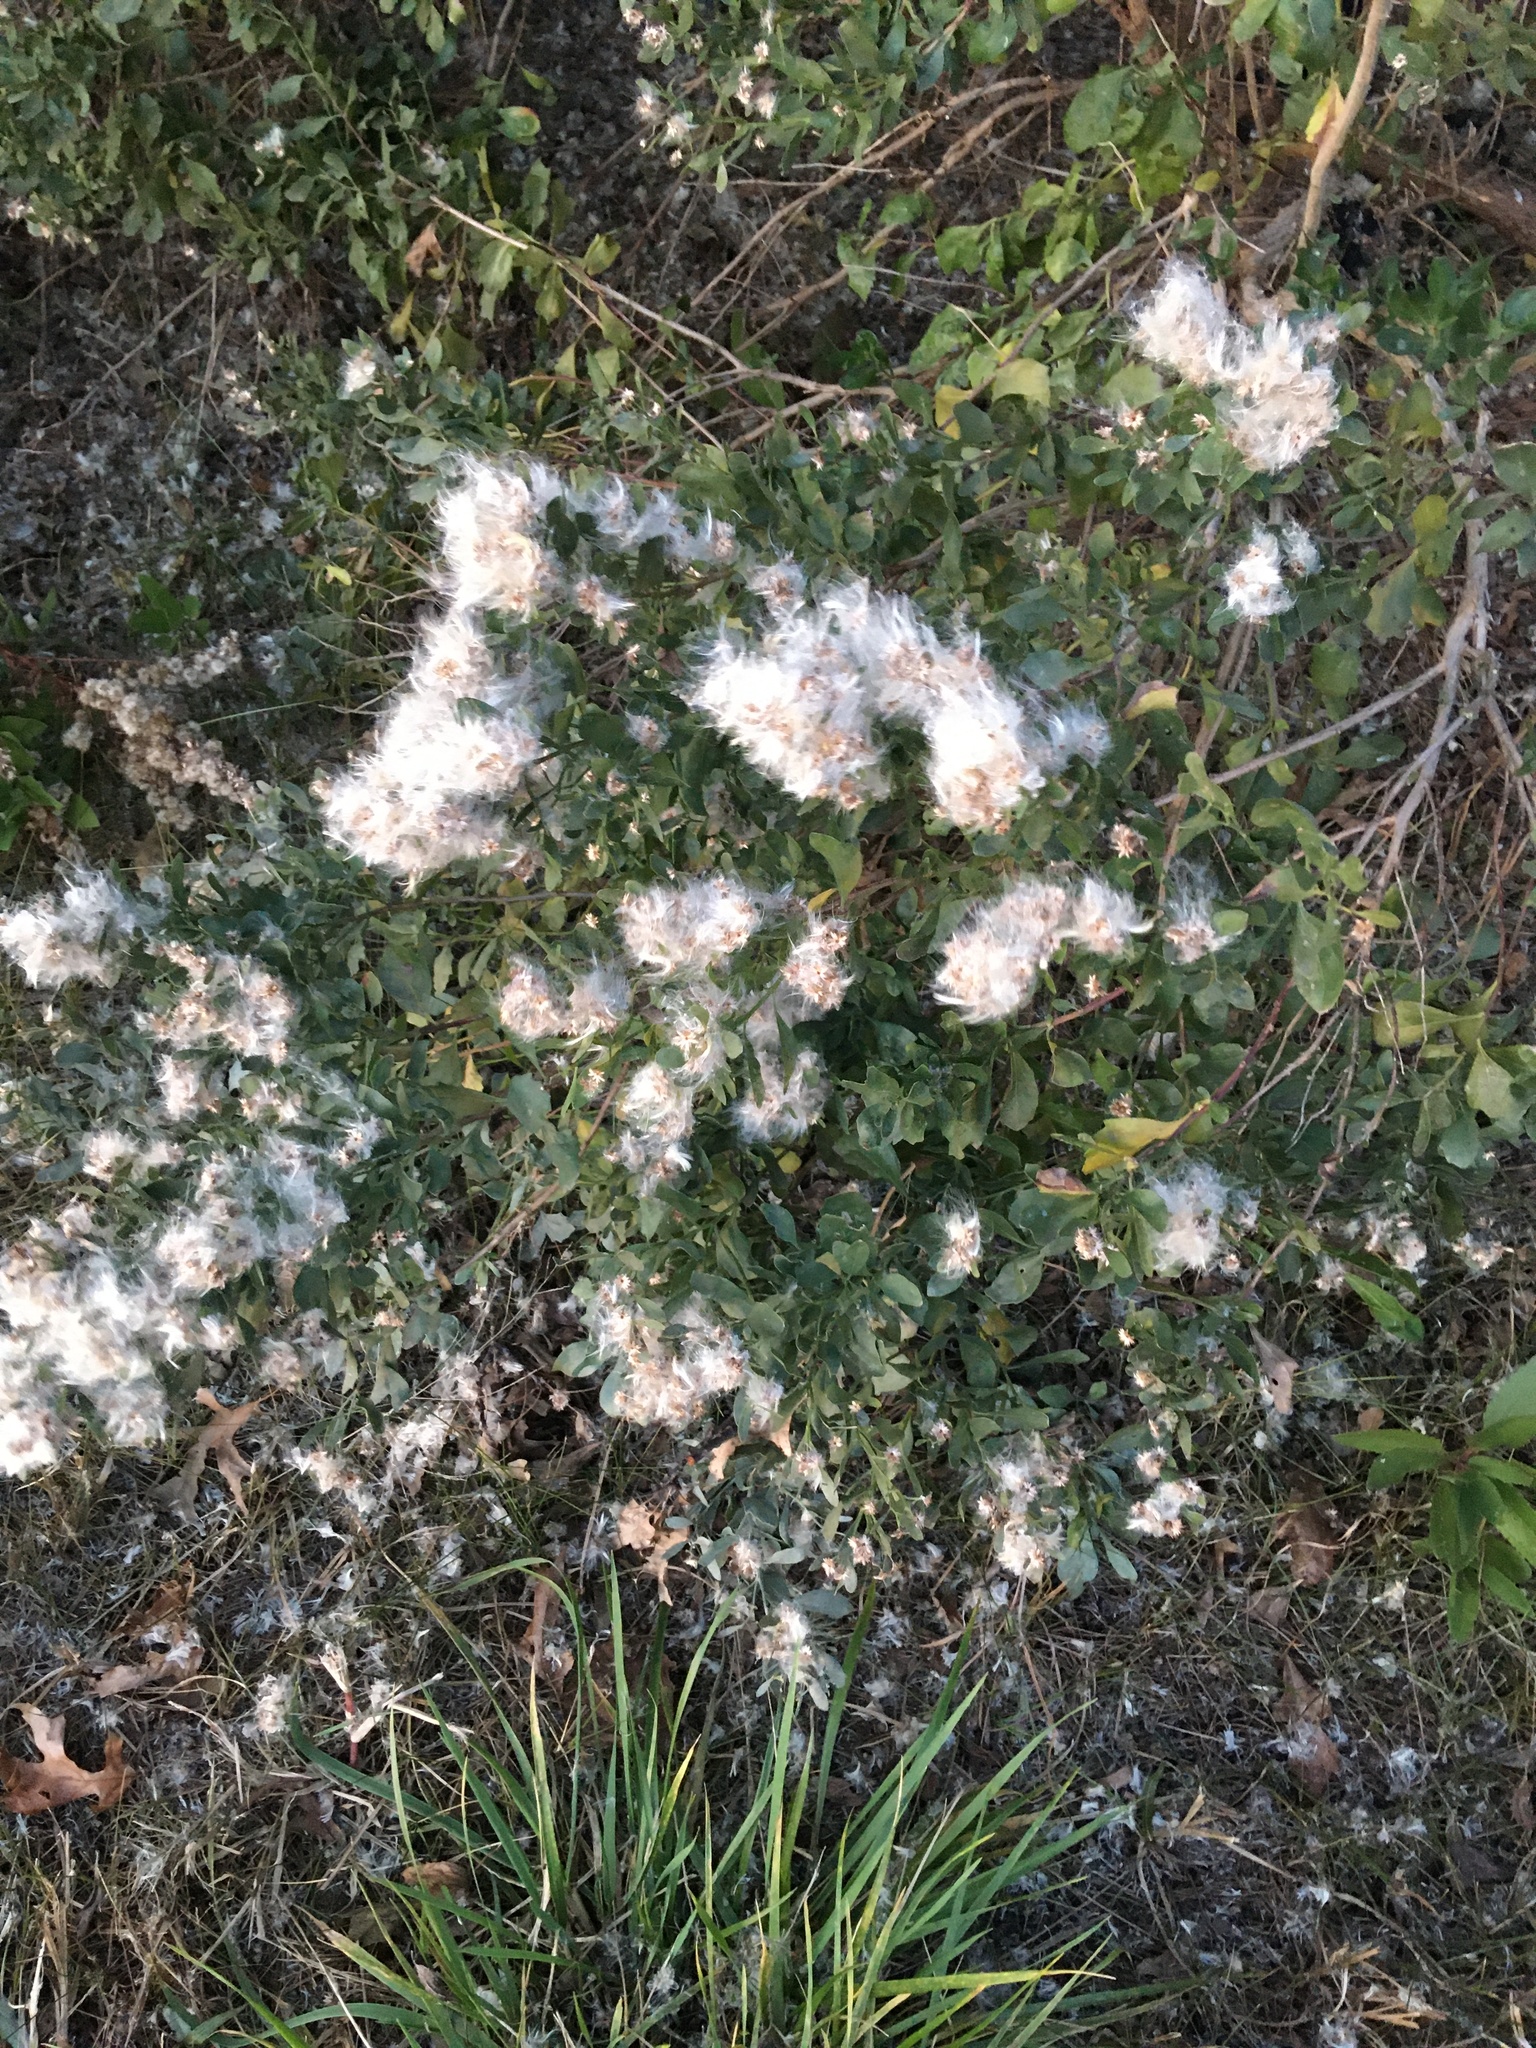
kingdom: Plantae
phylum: Tracheophyta
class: Magnoliopsida
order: Asterales
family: Asteraceae
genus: Baccharis
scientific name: Baccharis halimifolia
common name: Eastern baccharis
